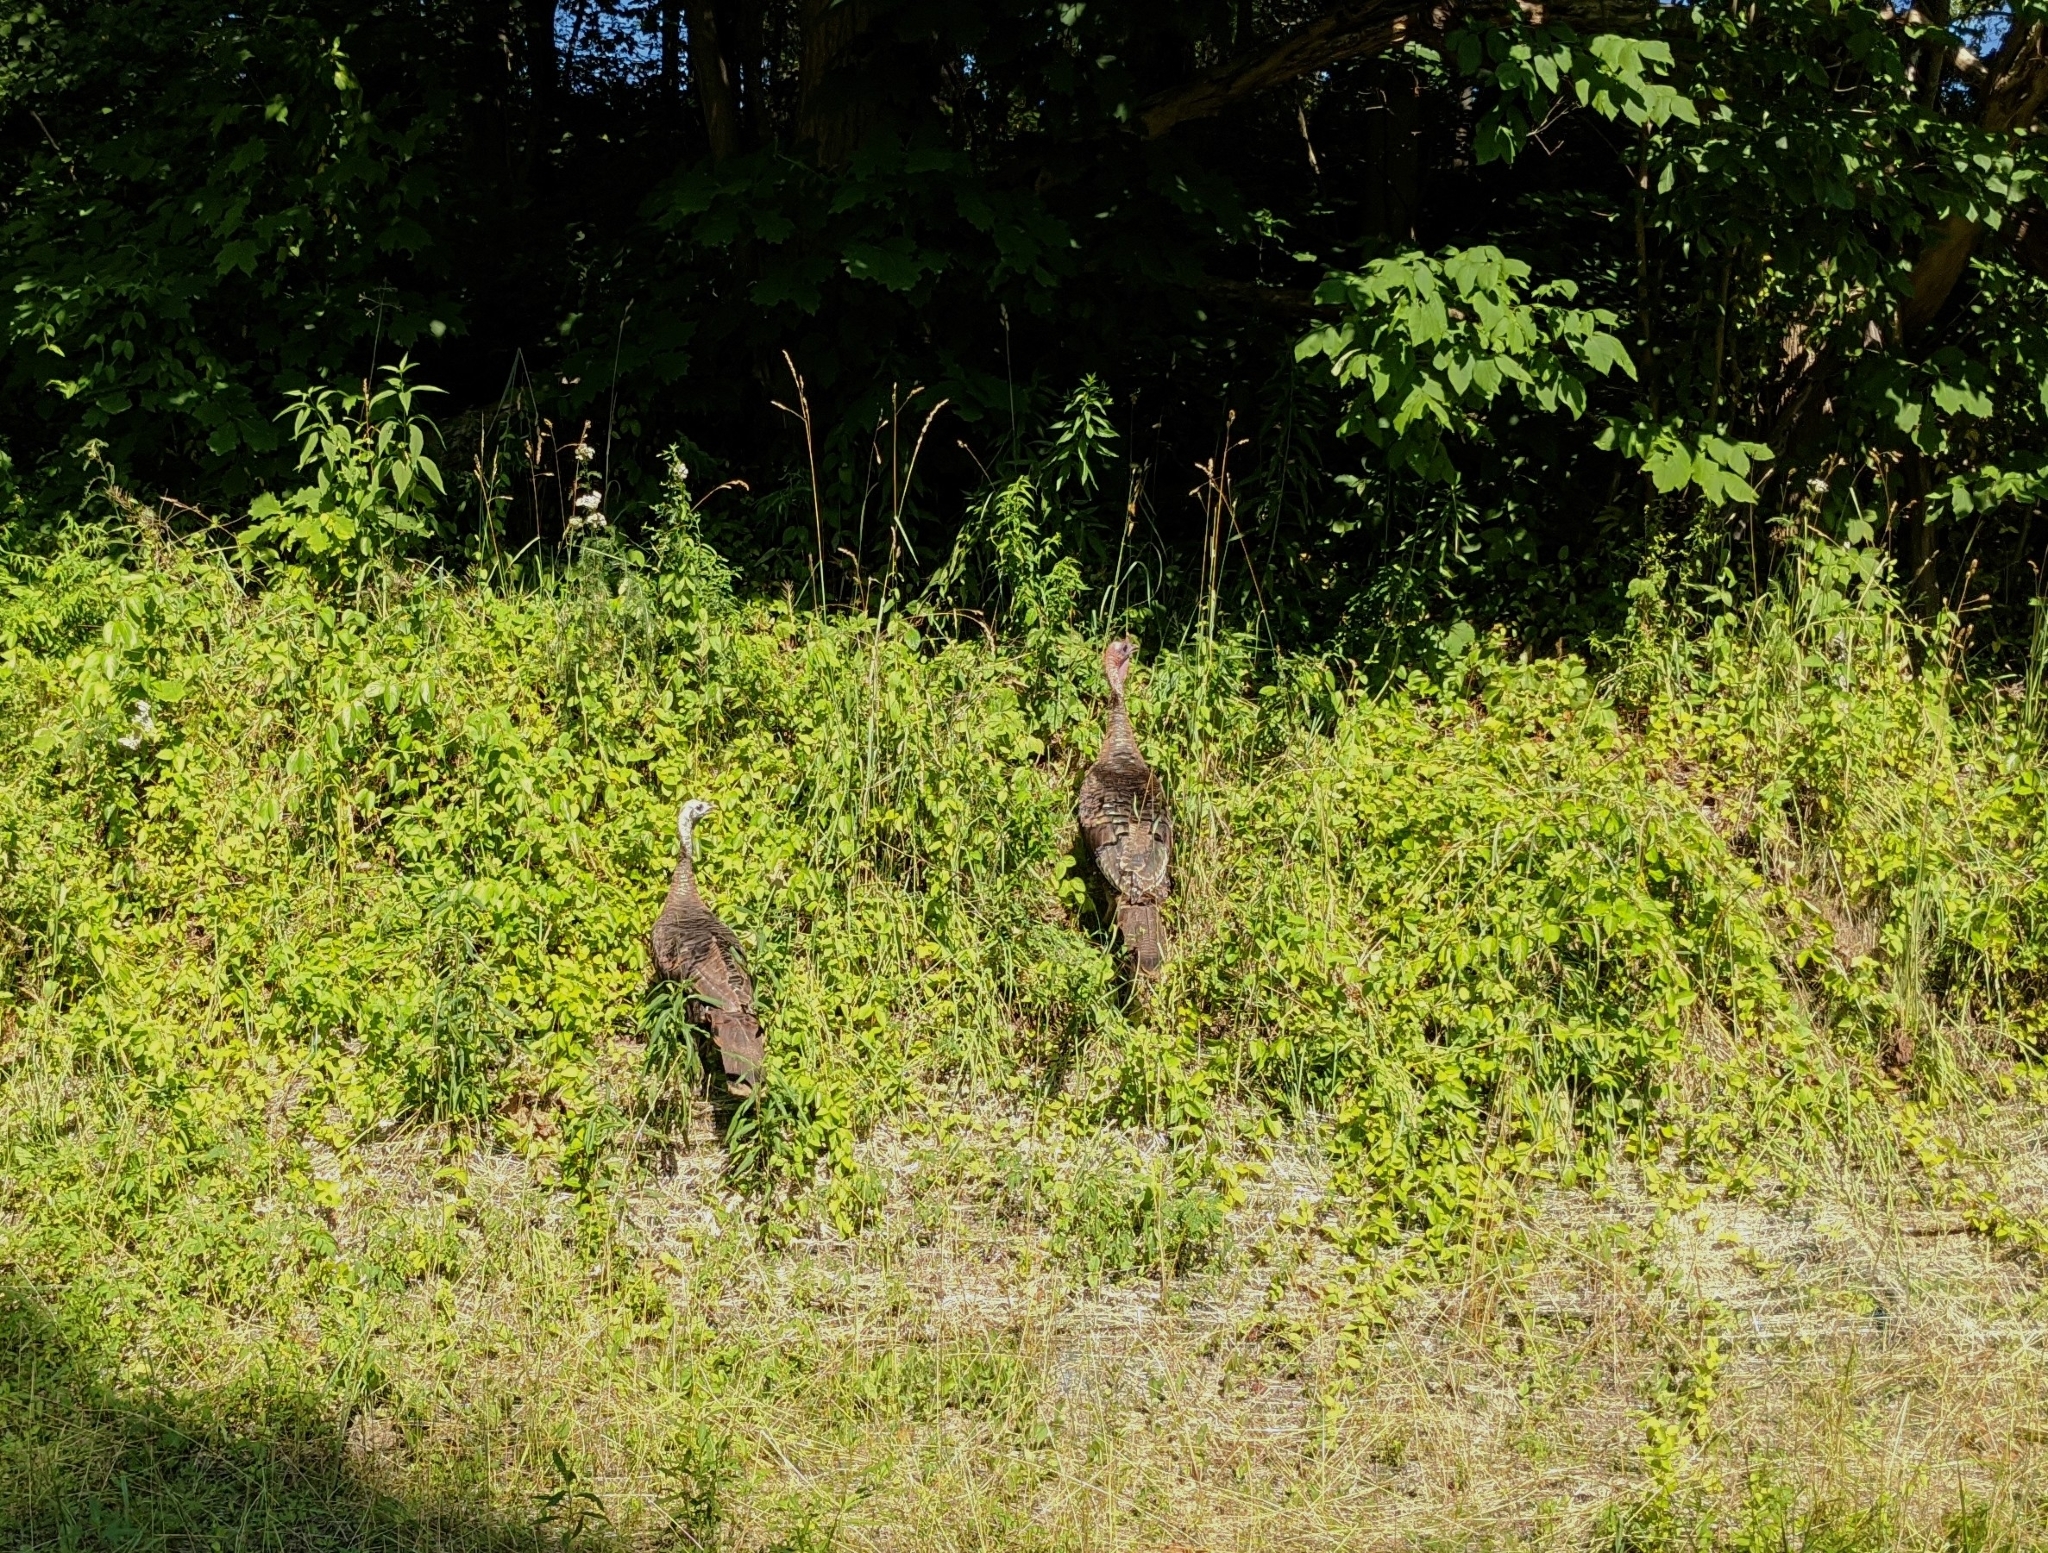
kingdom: Animalia
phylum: Chordata
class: Aves
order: Galliformes
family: Phasianidae
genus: Meleagris
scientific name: Meleagris gallopavo
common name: Wild turkey
